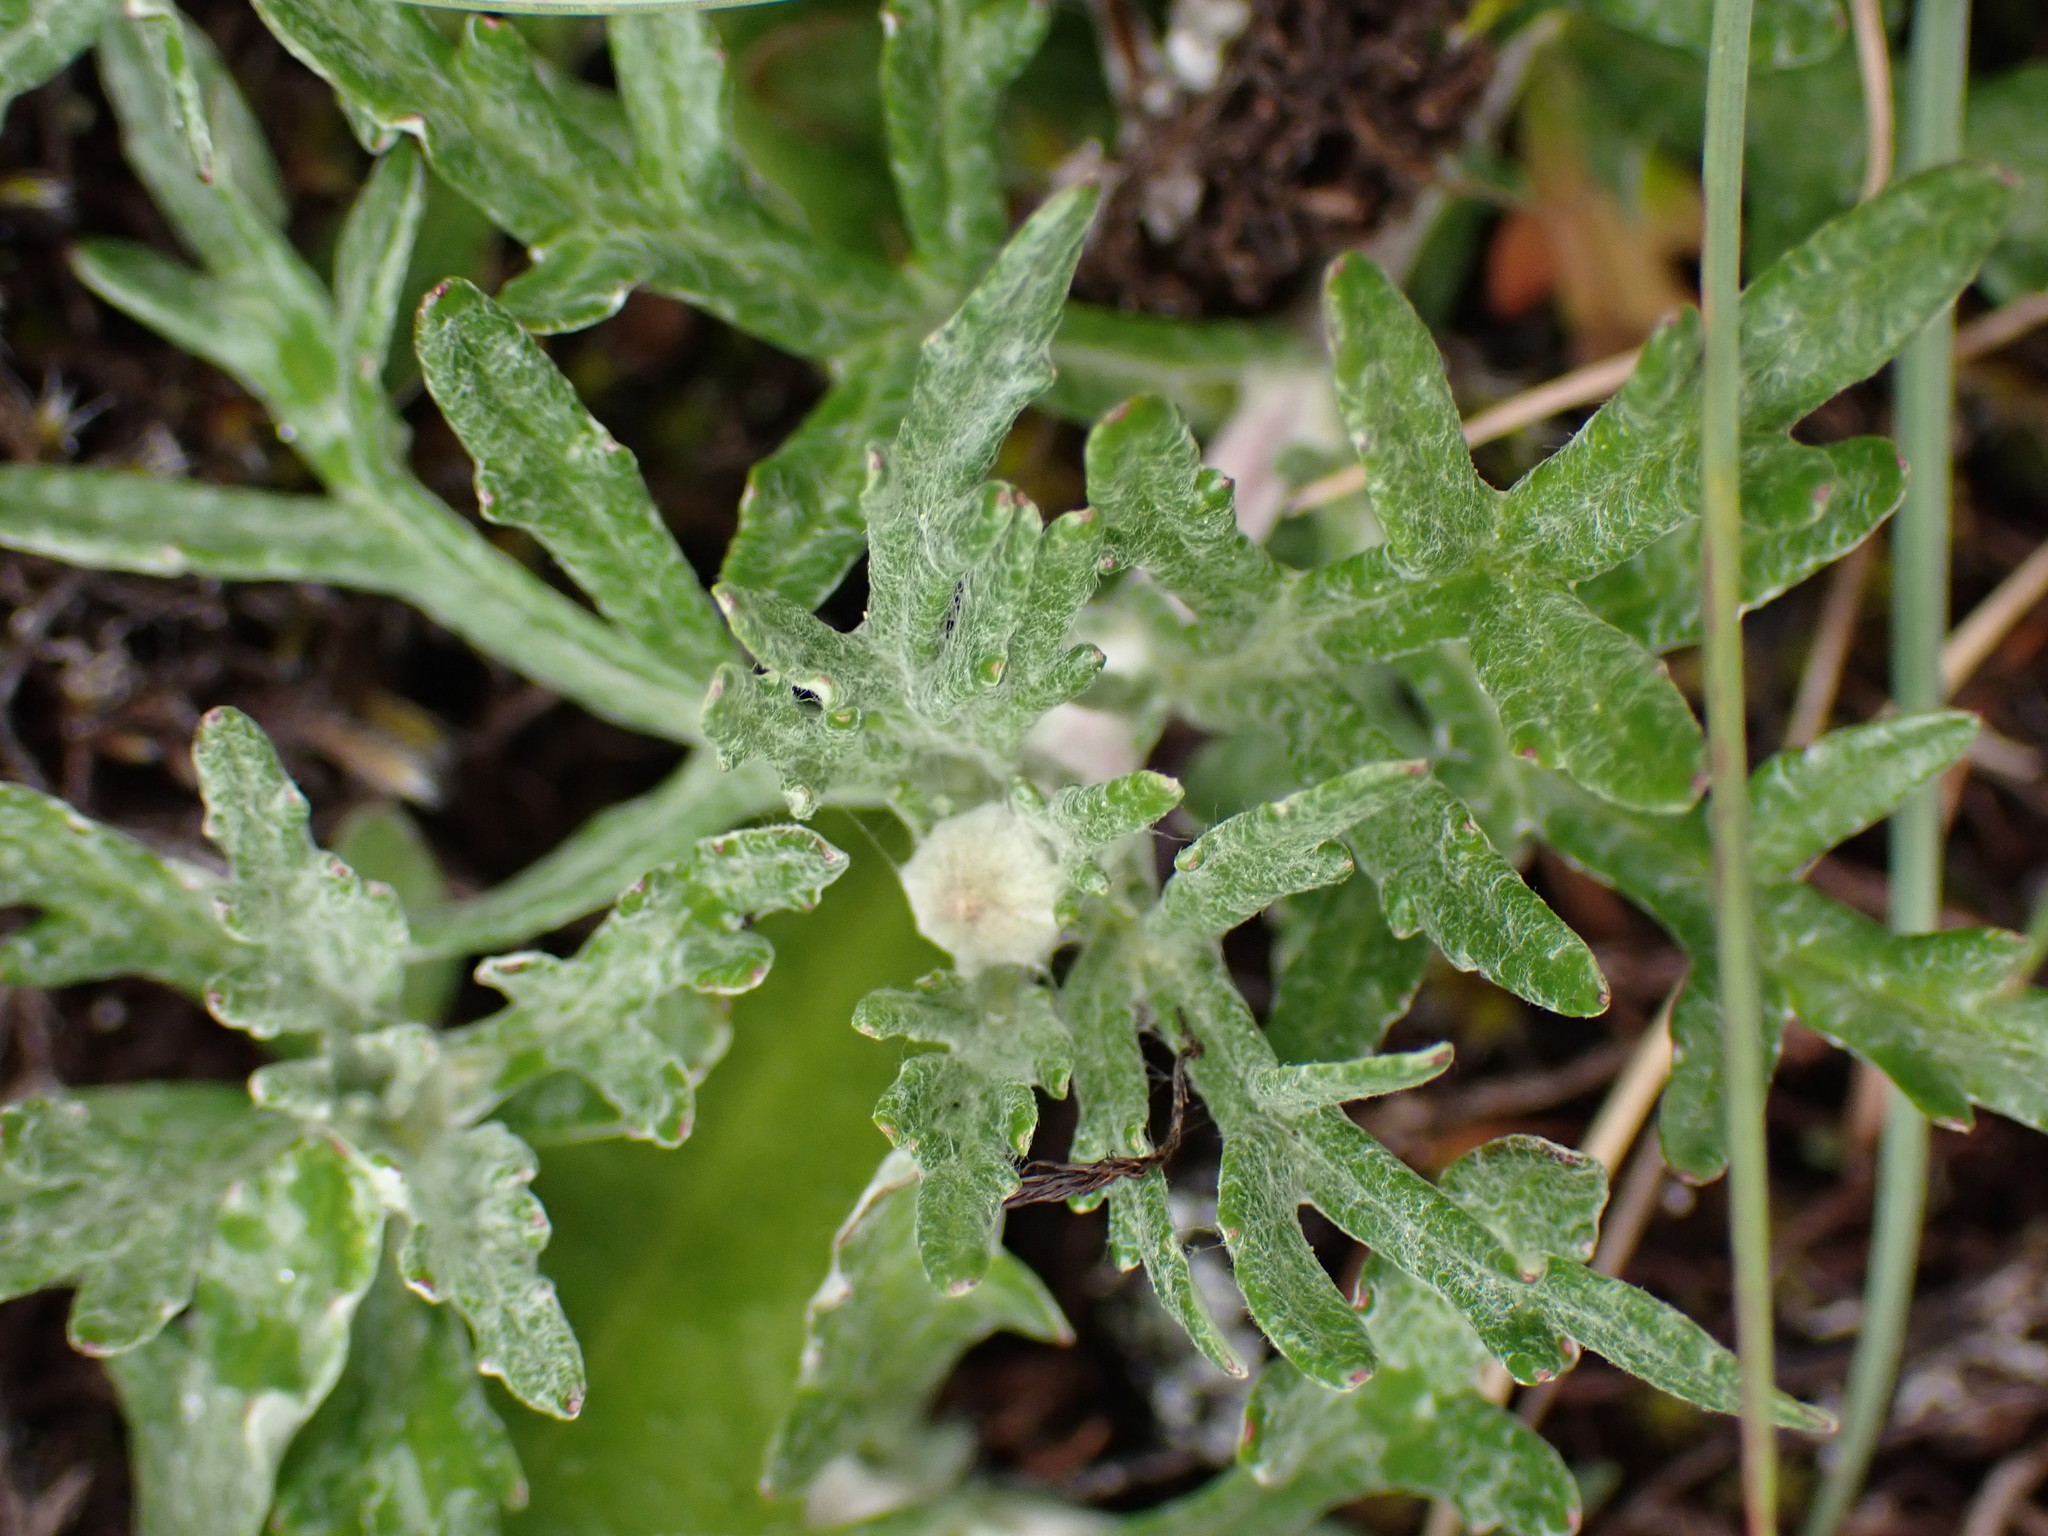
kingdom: Plantae
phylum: Tracheophyta
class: Magnoliopsida
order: Asterales
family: Asteraceae
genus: Eriophyllum
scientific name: Eriophyllum lanatum
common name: Common woolly-sunflower
